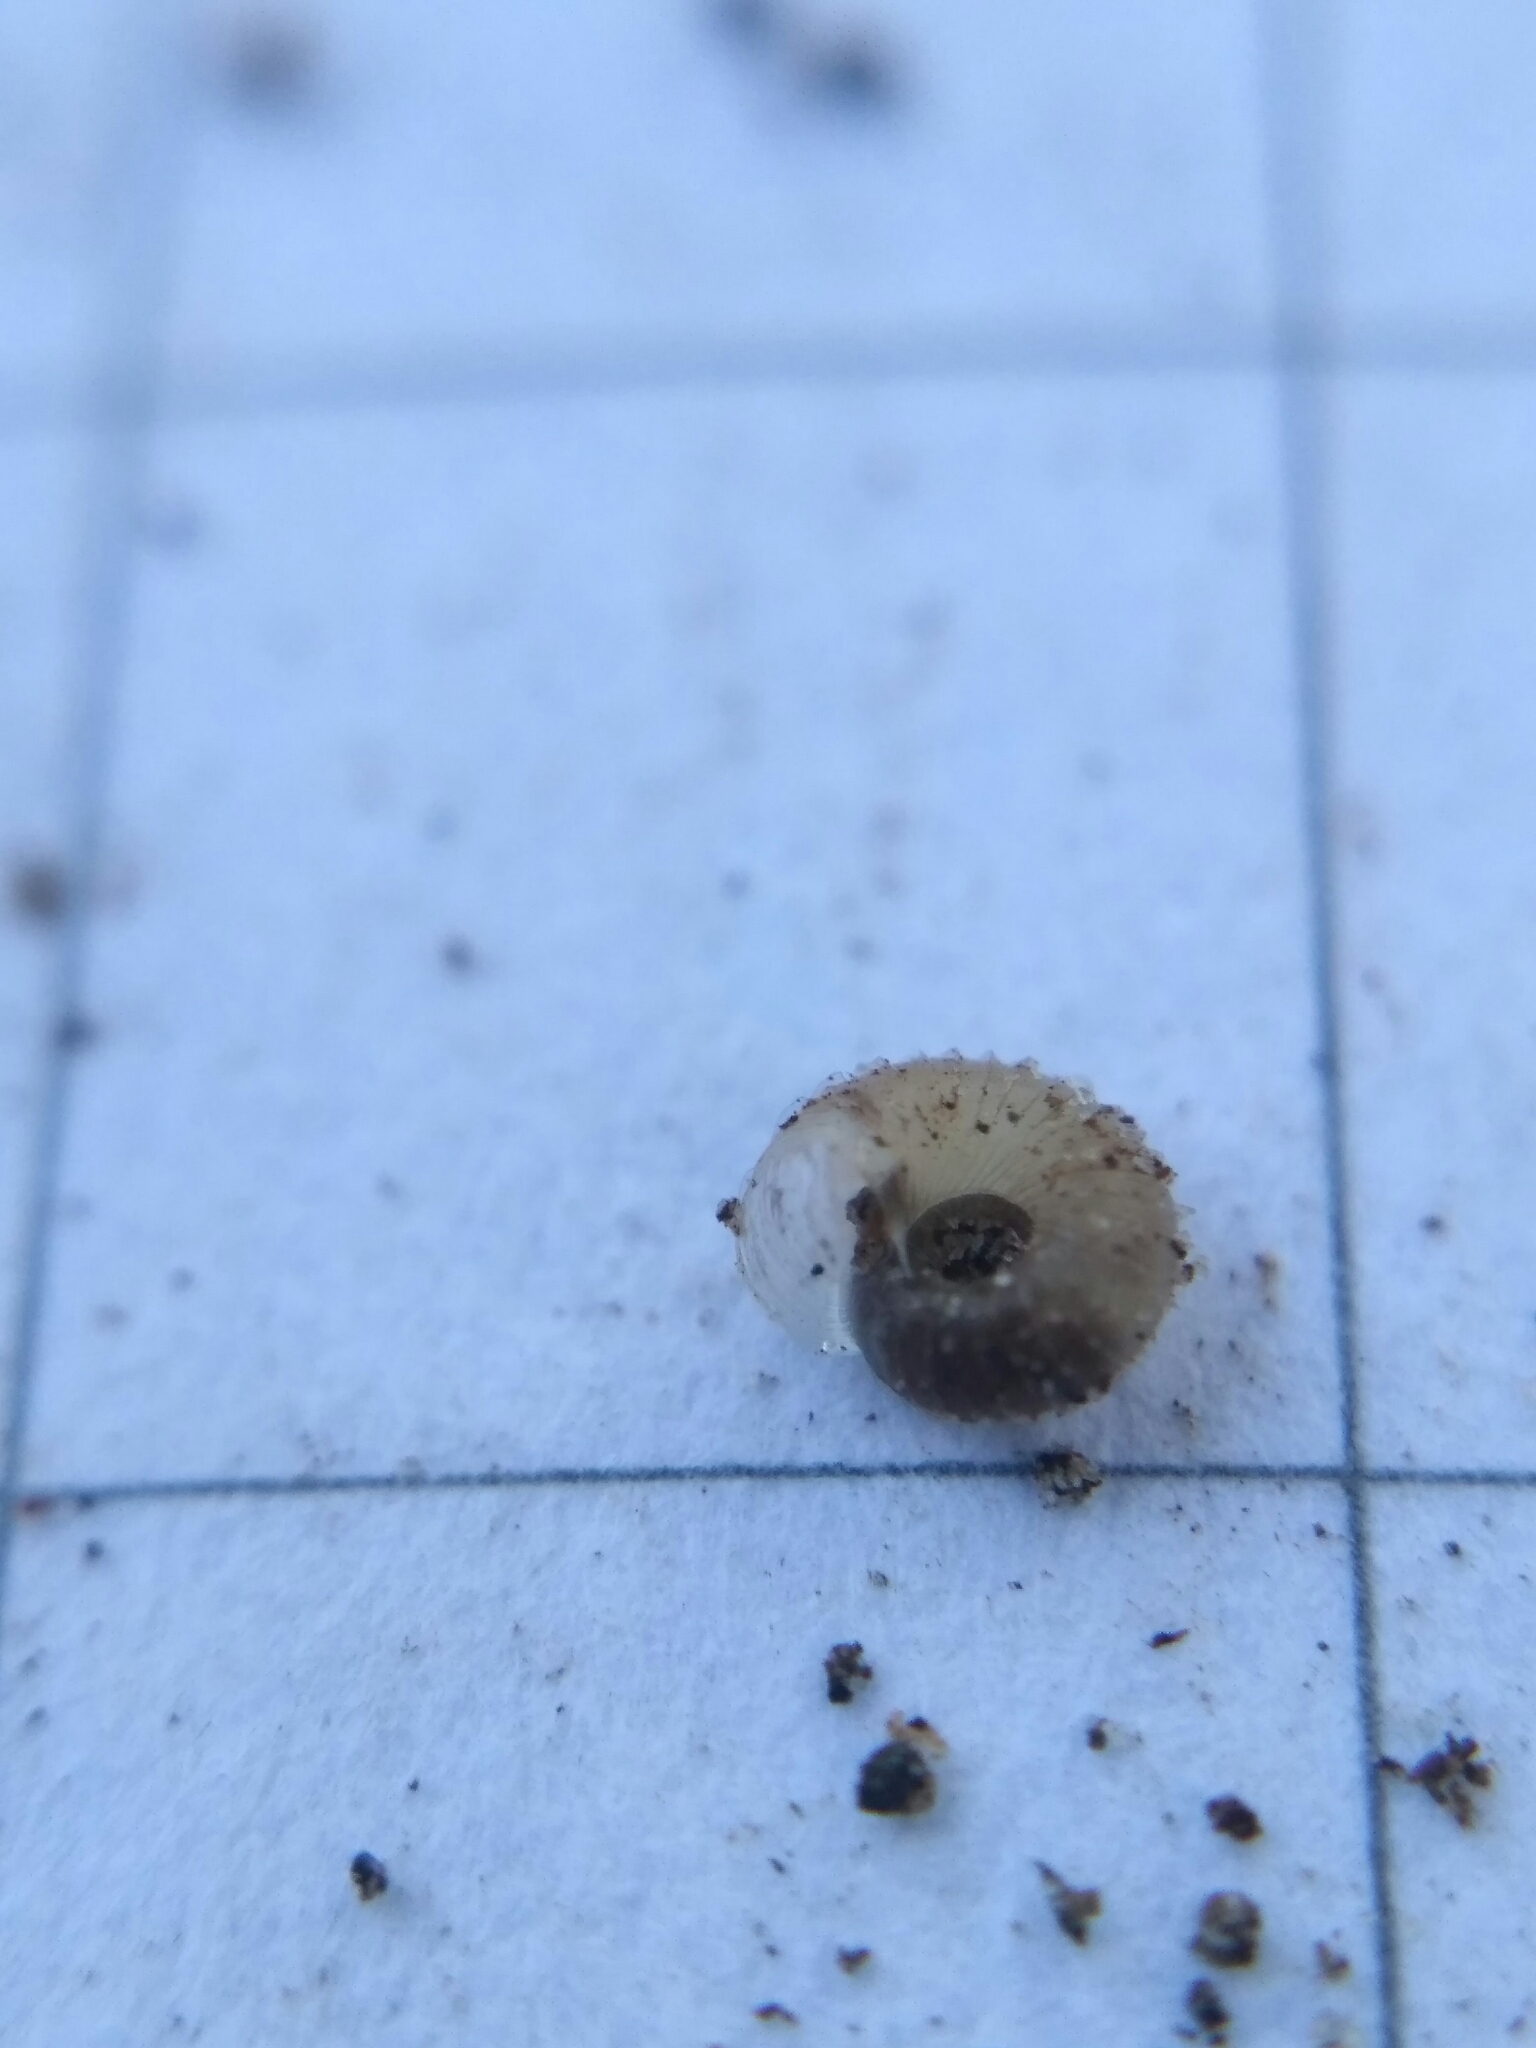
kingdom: Animalia
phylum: Mollusca
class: Gastropoda
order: Stylommatophora
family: Valloniidae
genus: Vallonia
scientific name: Vallonia costata
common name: Ribbed grass snail
